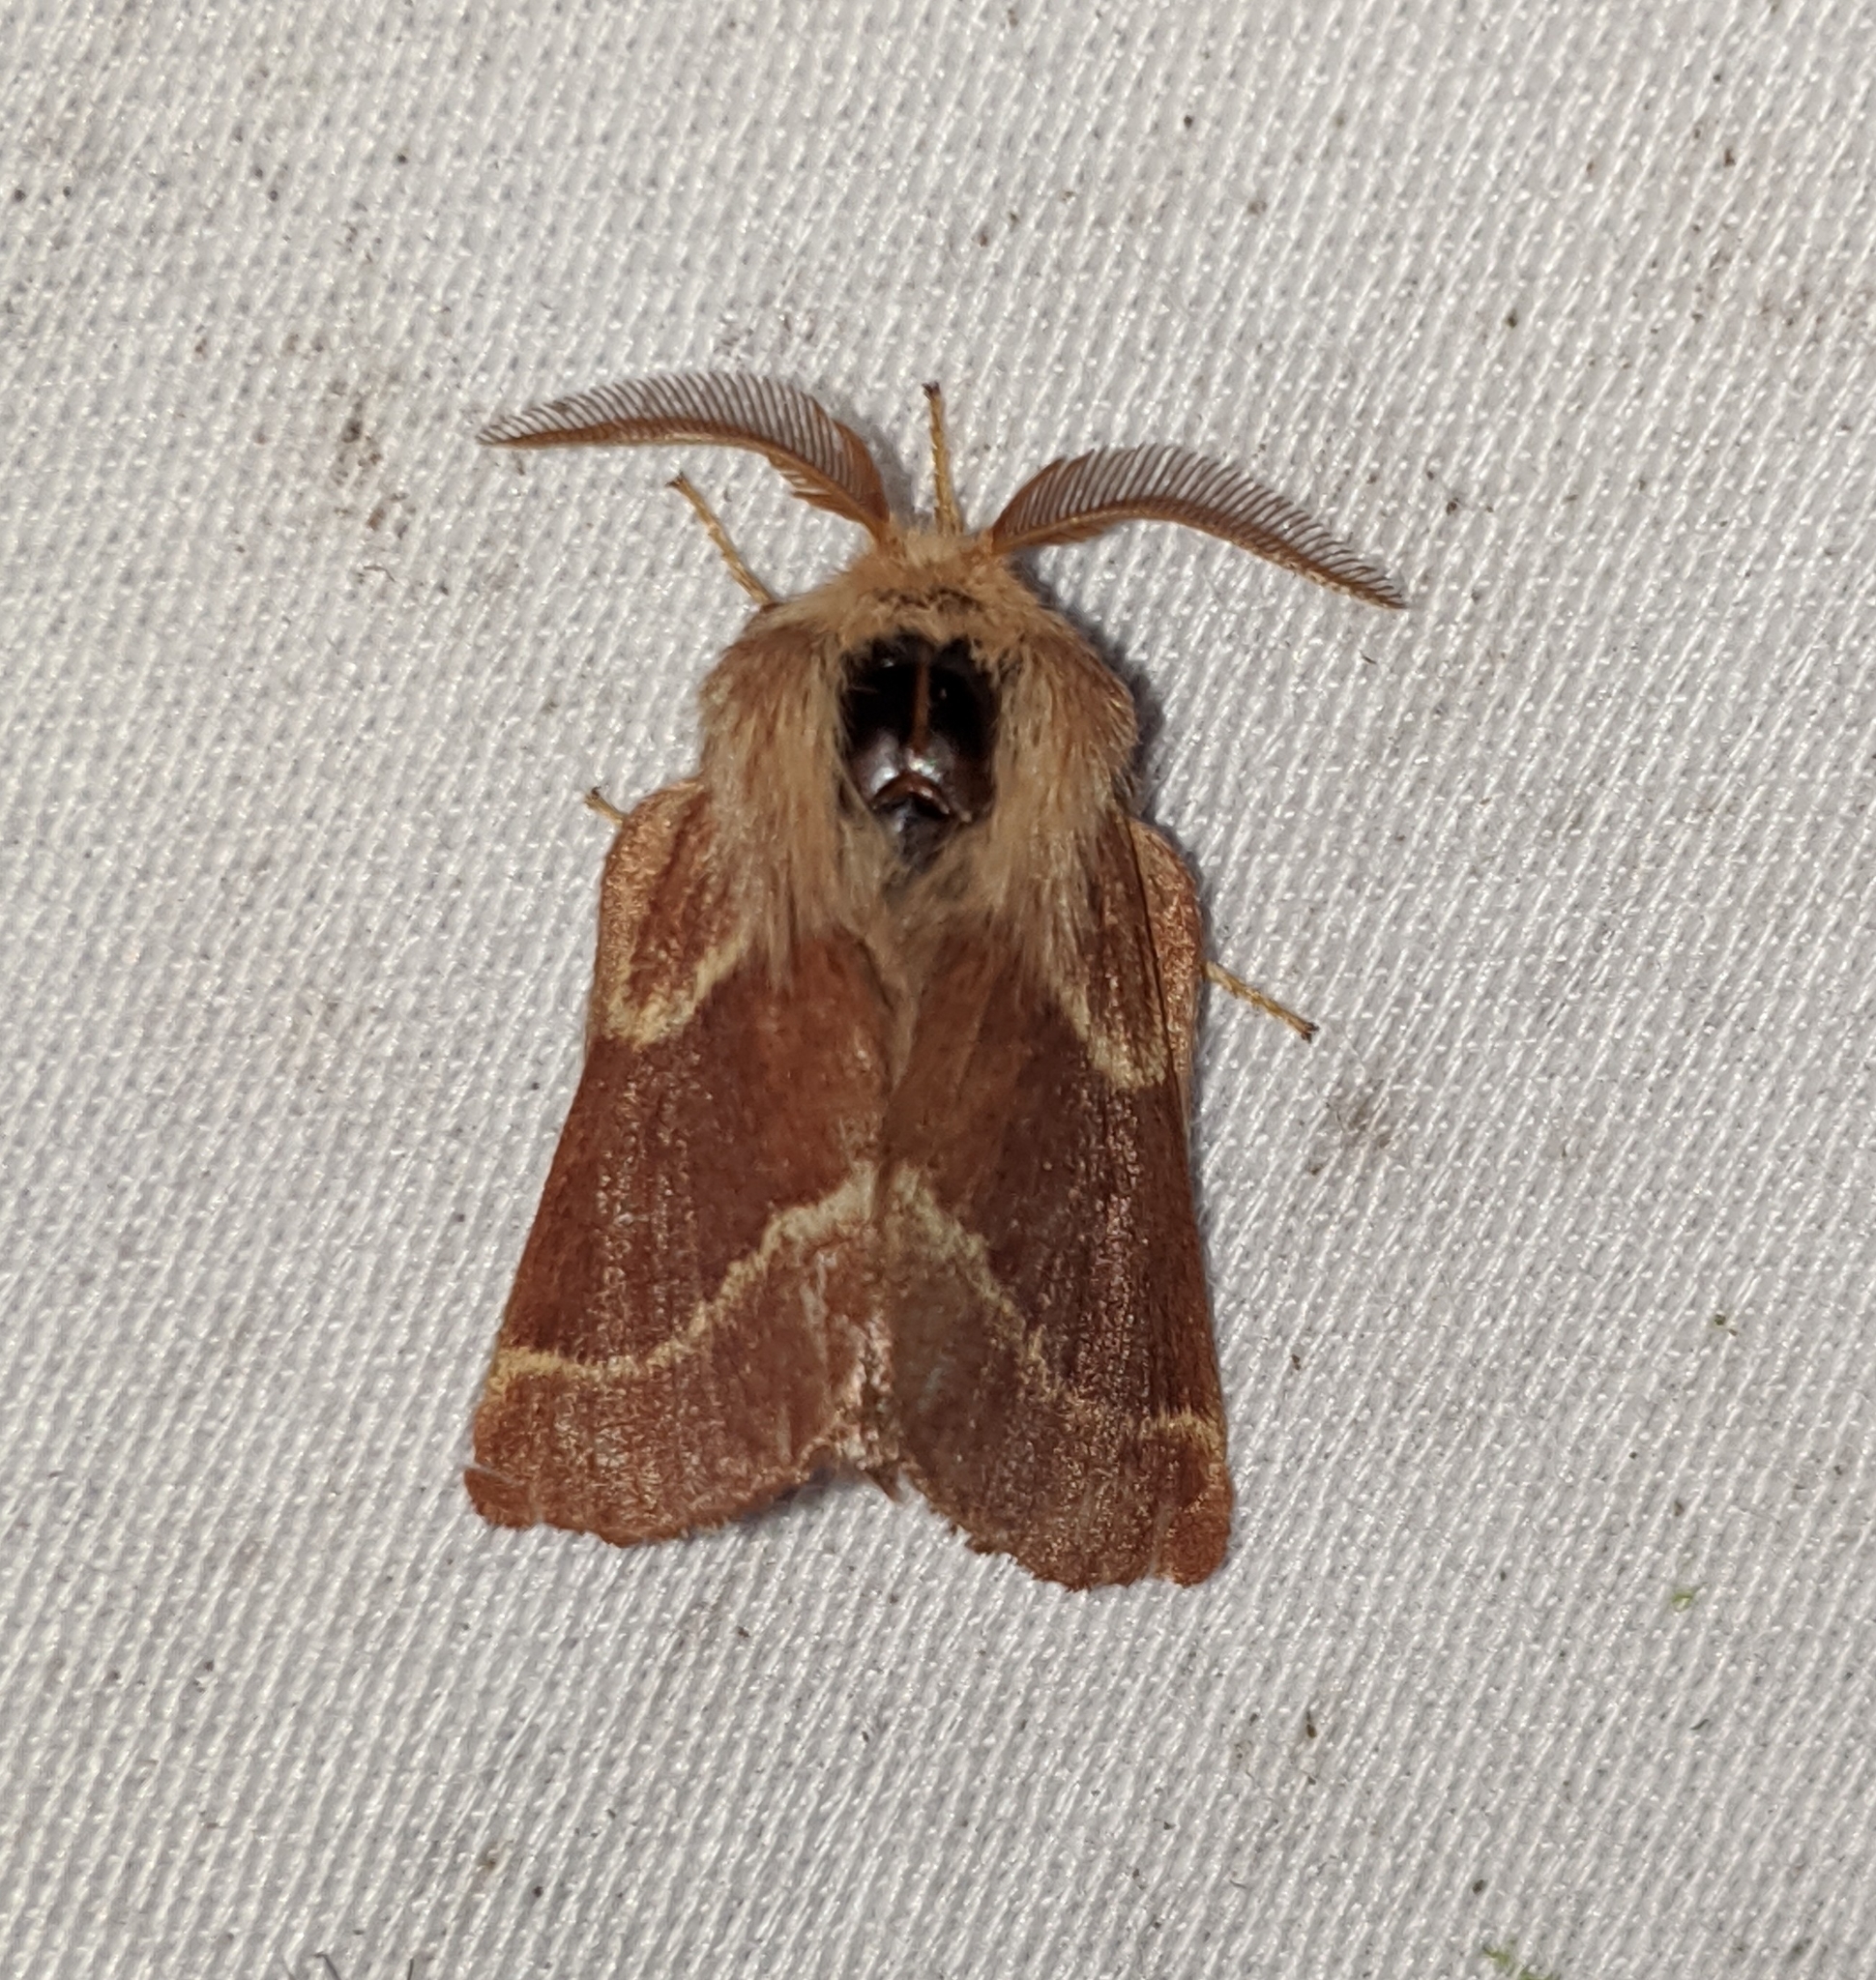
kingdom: Animalia
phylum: Arthropoda
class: Insecta
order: Lepidoptera
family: Lasiocampidae
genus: Malacosoma
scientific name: Malacosoma californica
